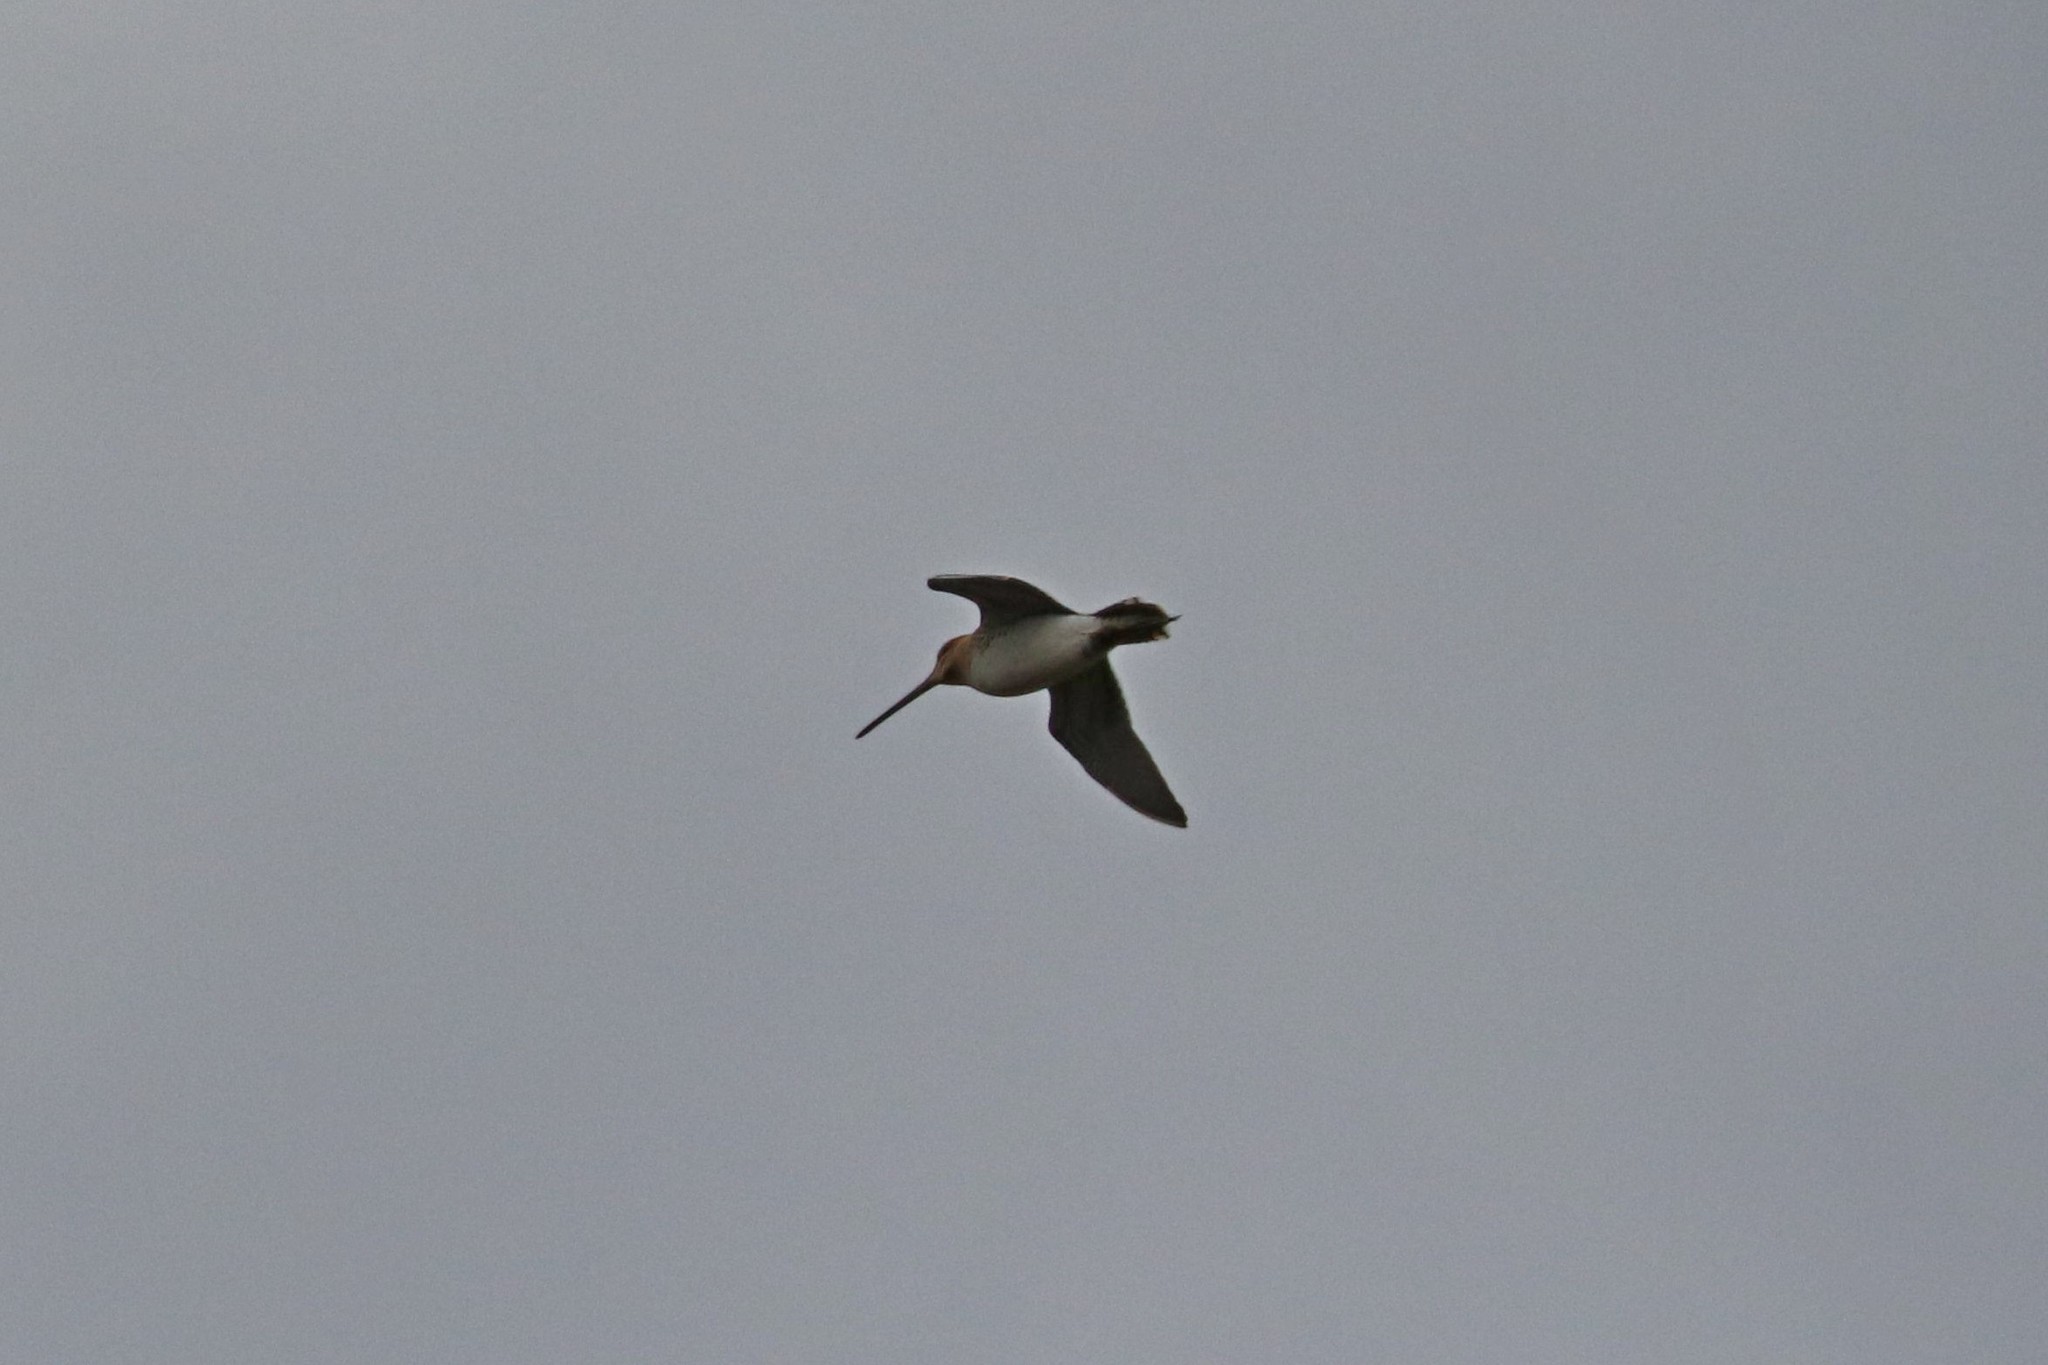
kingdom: Animalia
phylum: Chordata
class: Aves
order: Charadriiformes
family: Scolopacidae
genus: Gallinago
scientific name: Gallinago gallinago
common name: Common snipe
